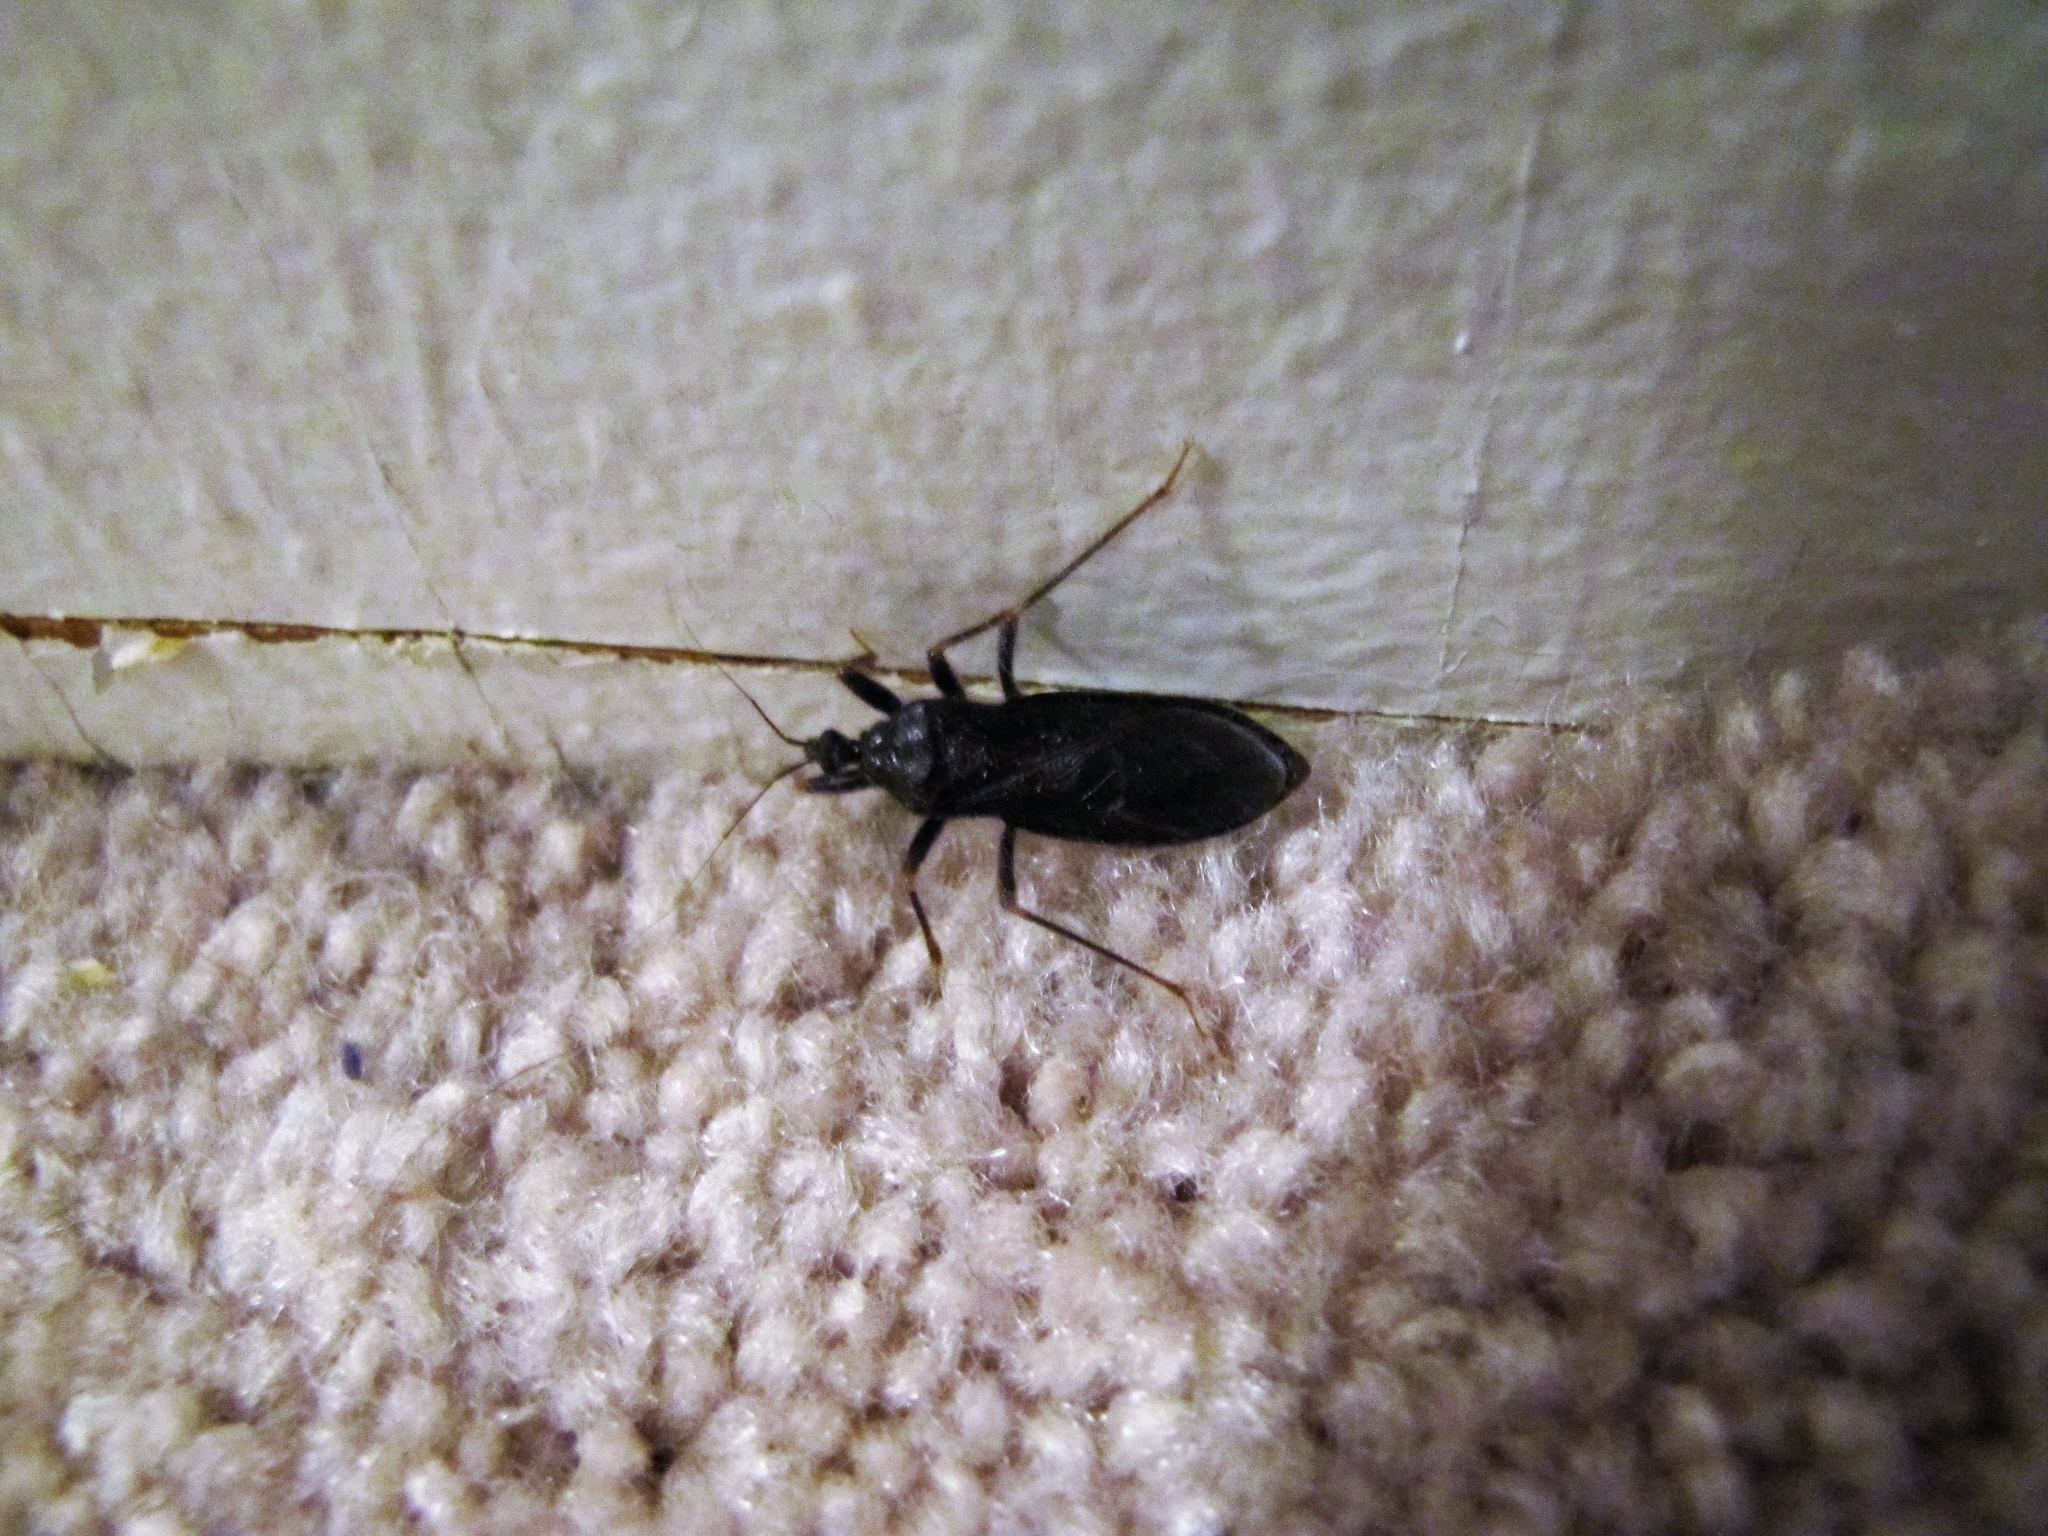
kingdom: Animalia
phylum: Arthropoda
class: Insecta
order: Hemiptera
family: Reduviidae
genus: Reduvius
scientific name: Reduvius personatus
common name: Masked hunter
